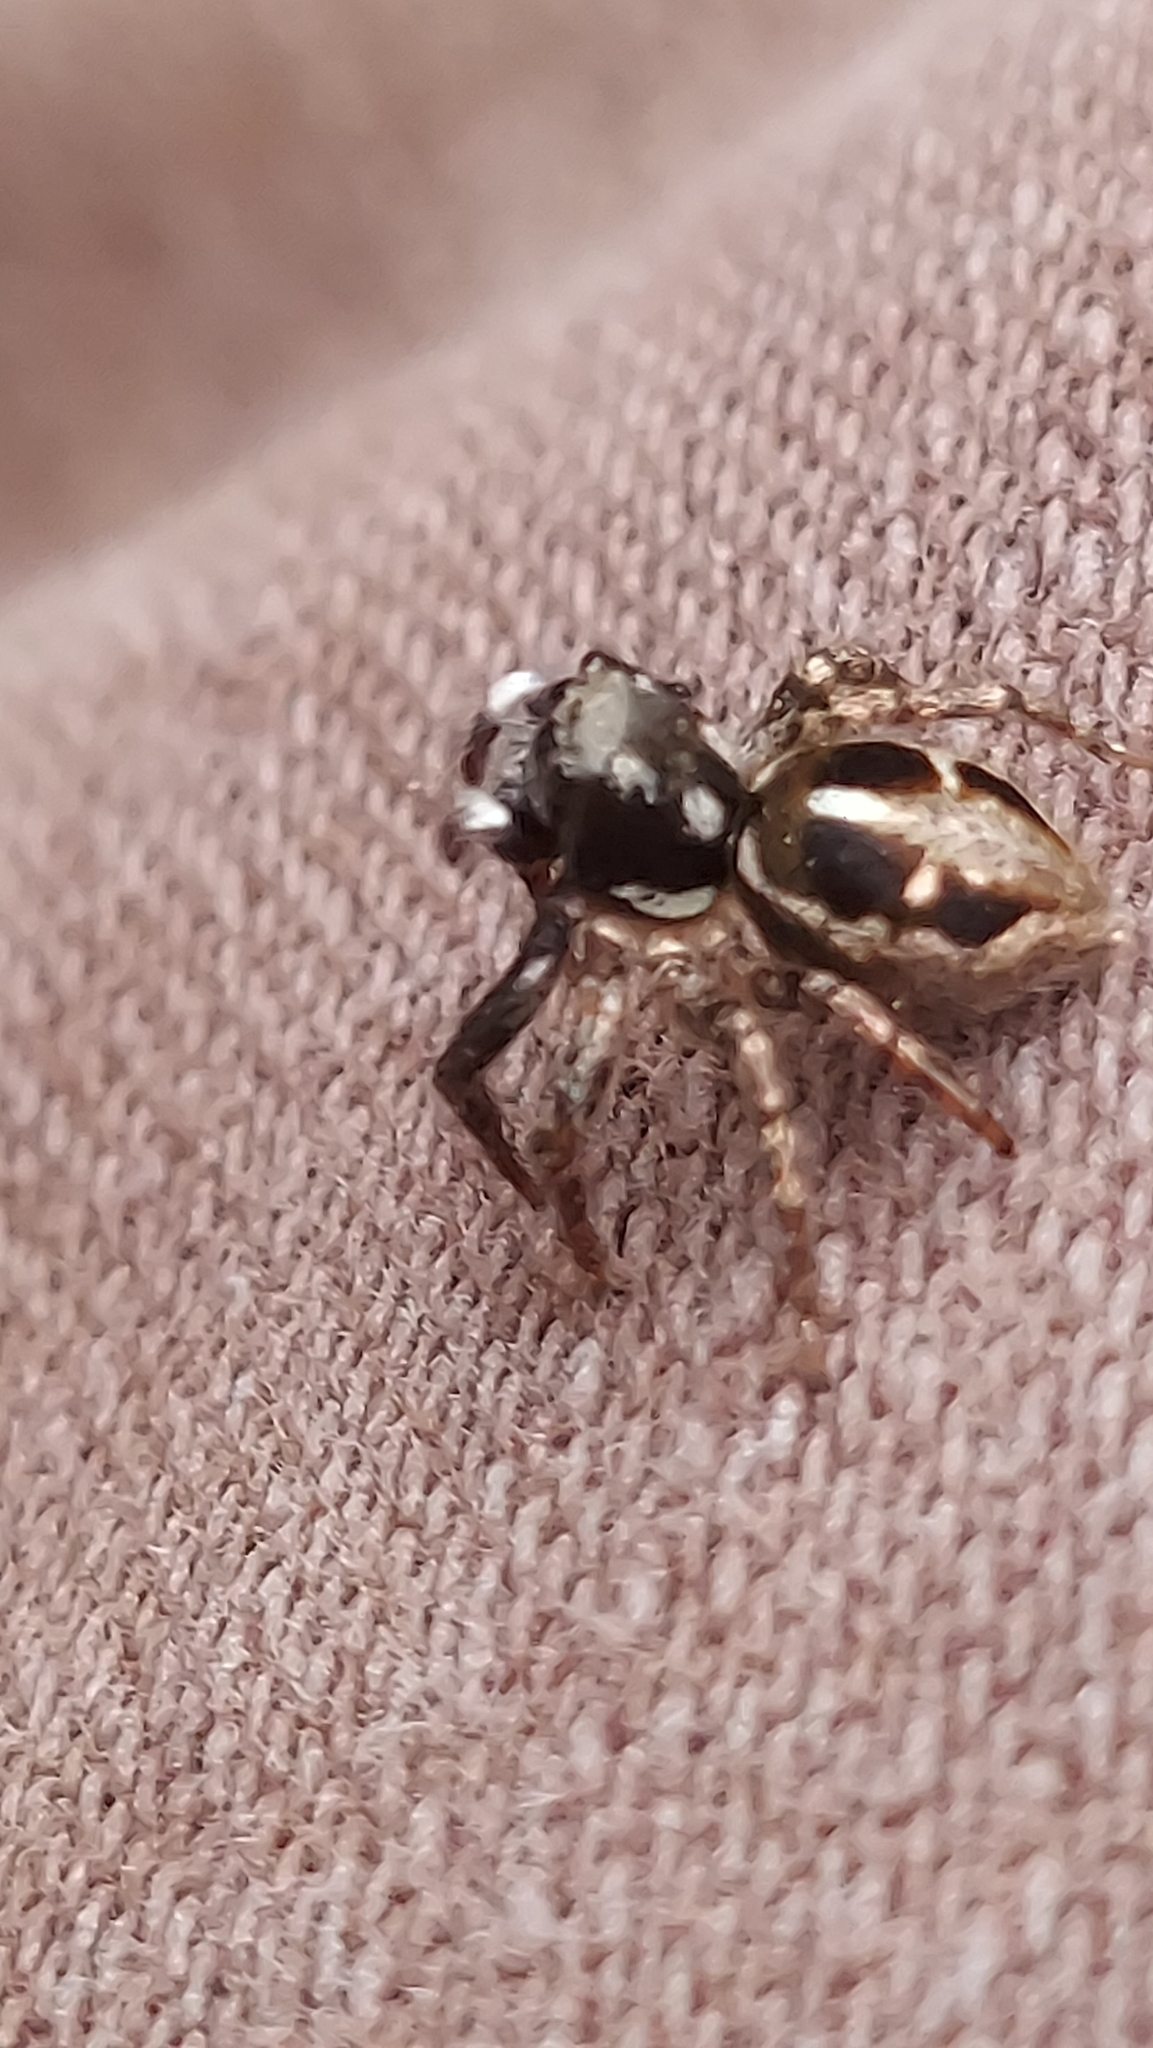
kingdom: Animalia
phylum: Arthropoda
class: Arachnida
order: Araneae
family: Salticidae
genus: Anasaitis
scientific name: Anasaitis canosa
